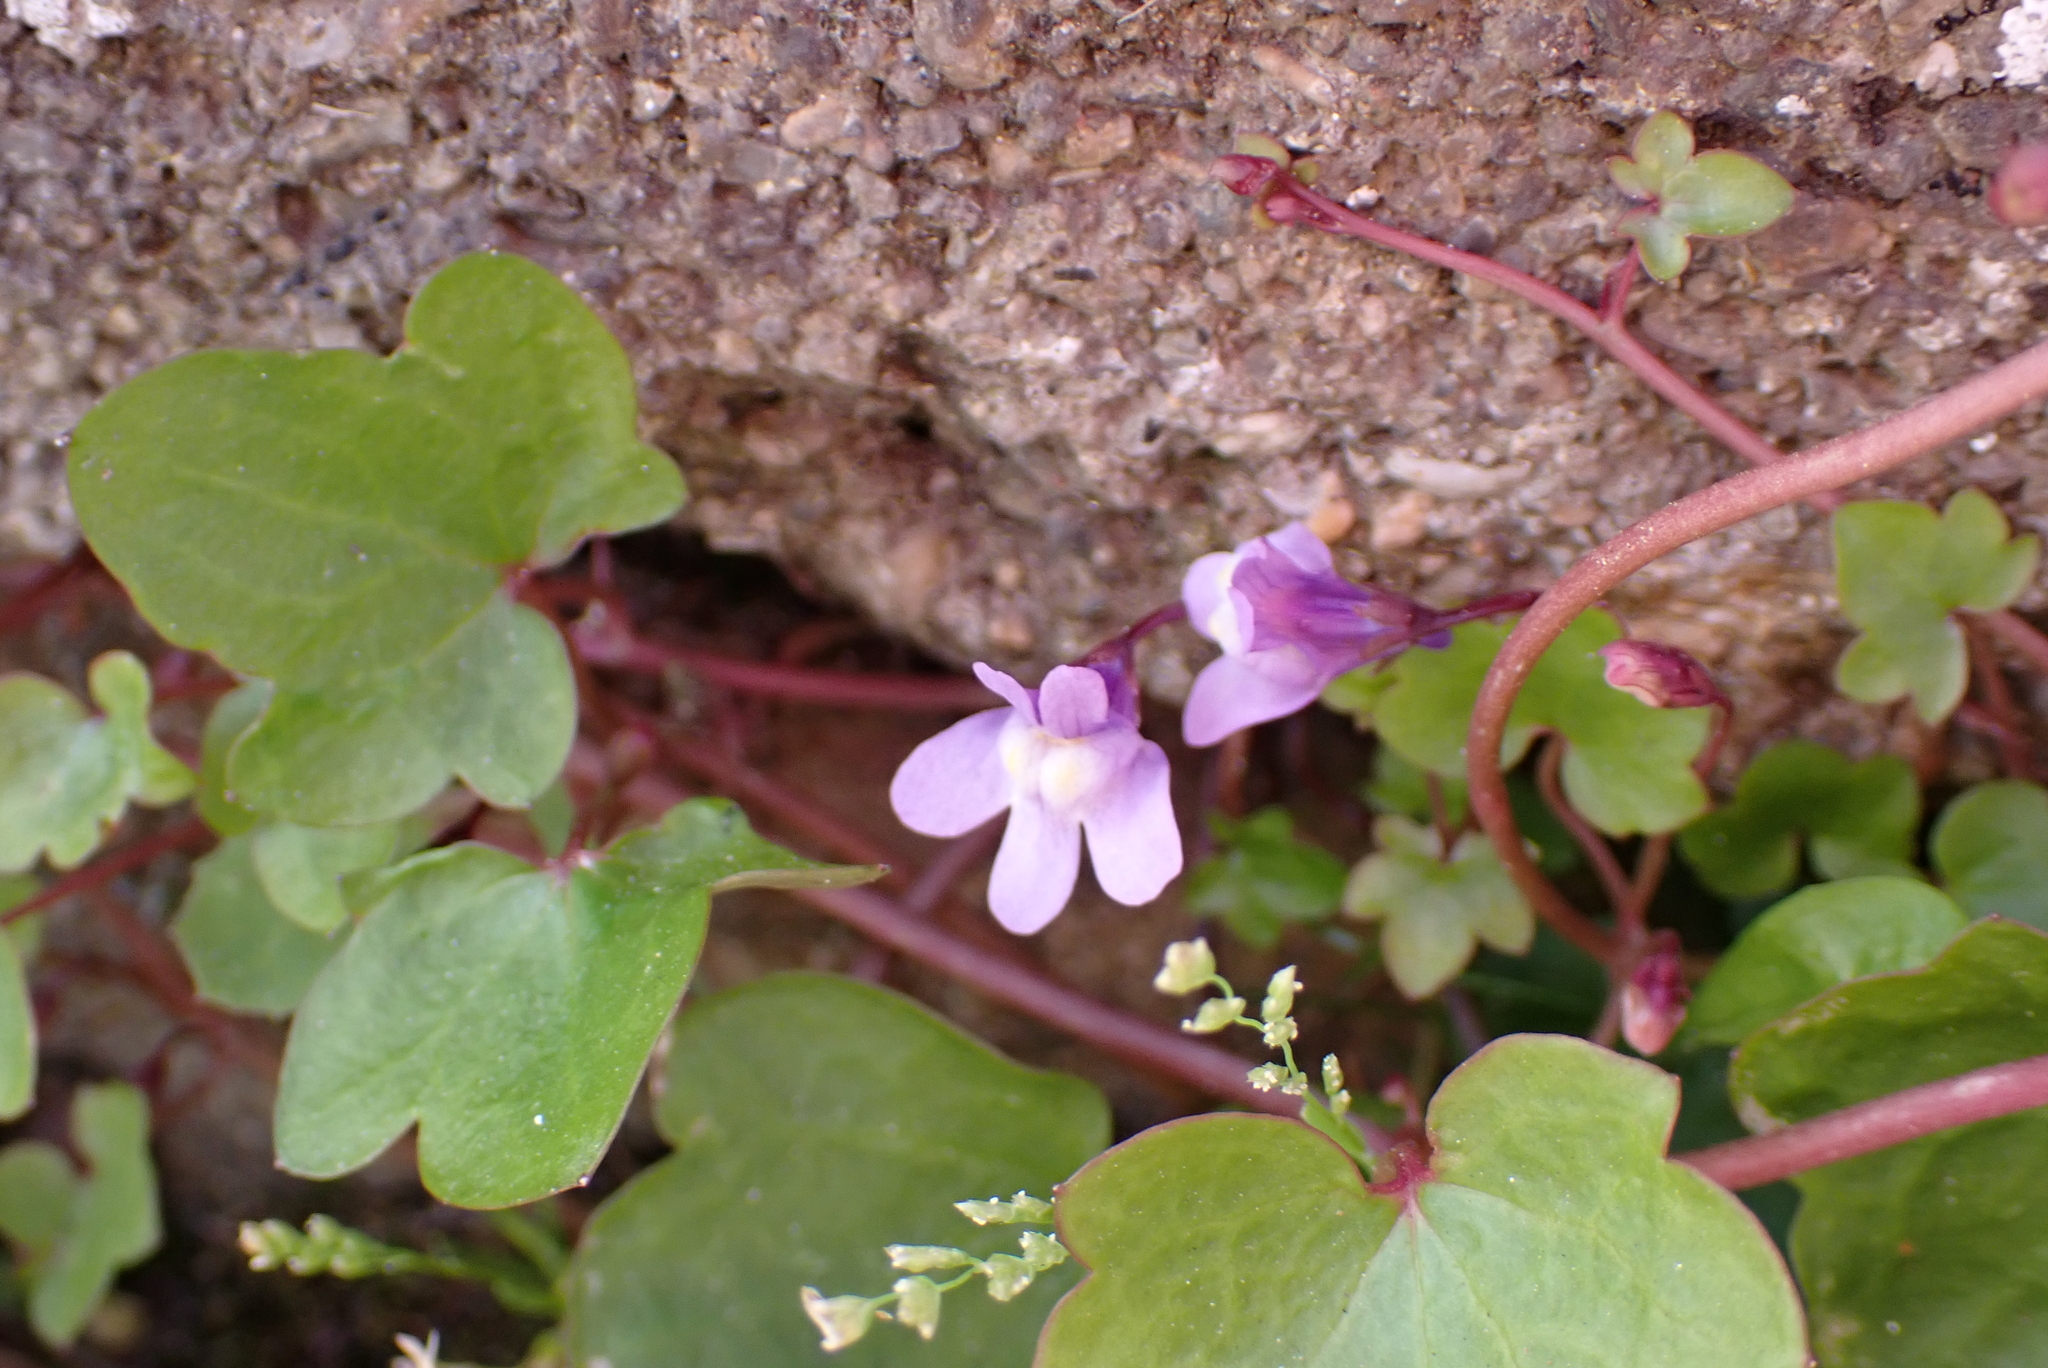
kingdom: Plantae
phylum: Tracheophyta
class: Magnoliopsida
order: Lamiales
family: Plantaginaceae
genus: Cymbalaria
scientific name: Cymbalaria muralis
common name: Ivy-leaved toadflax
